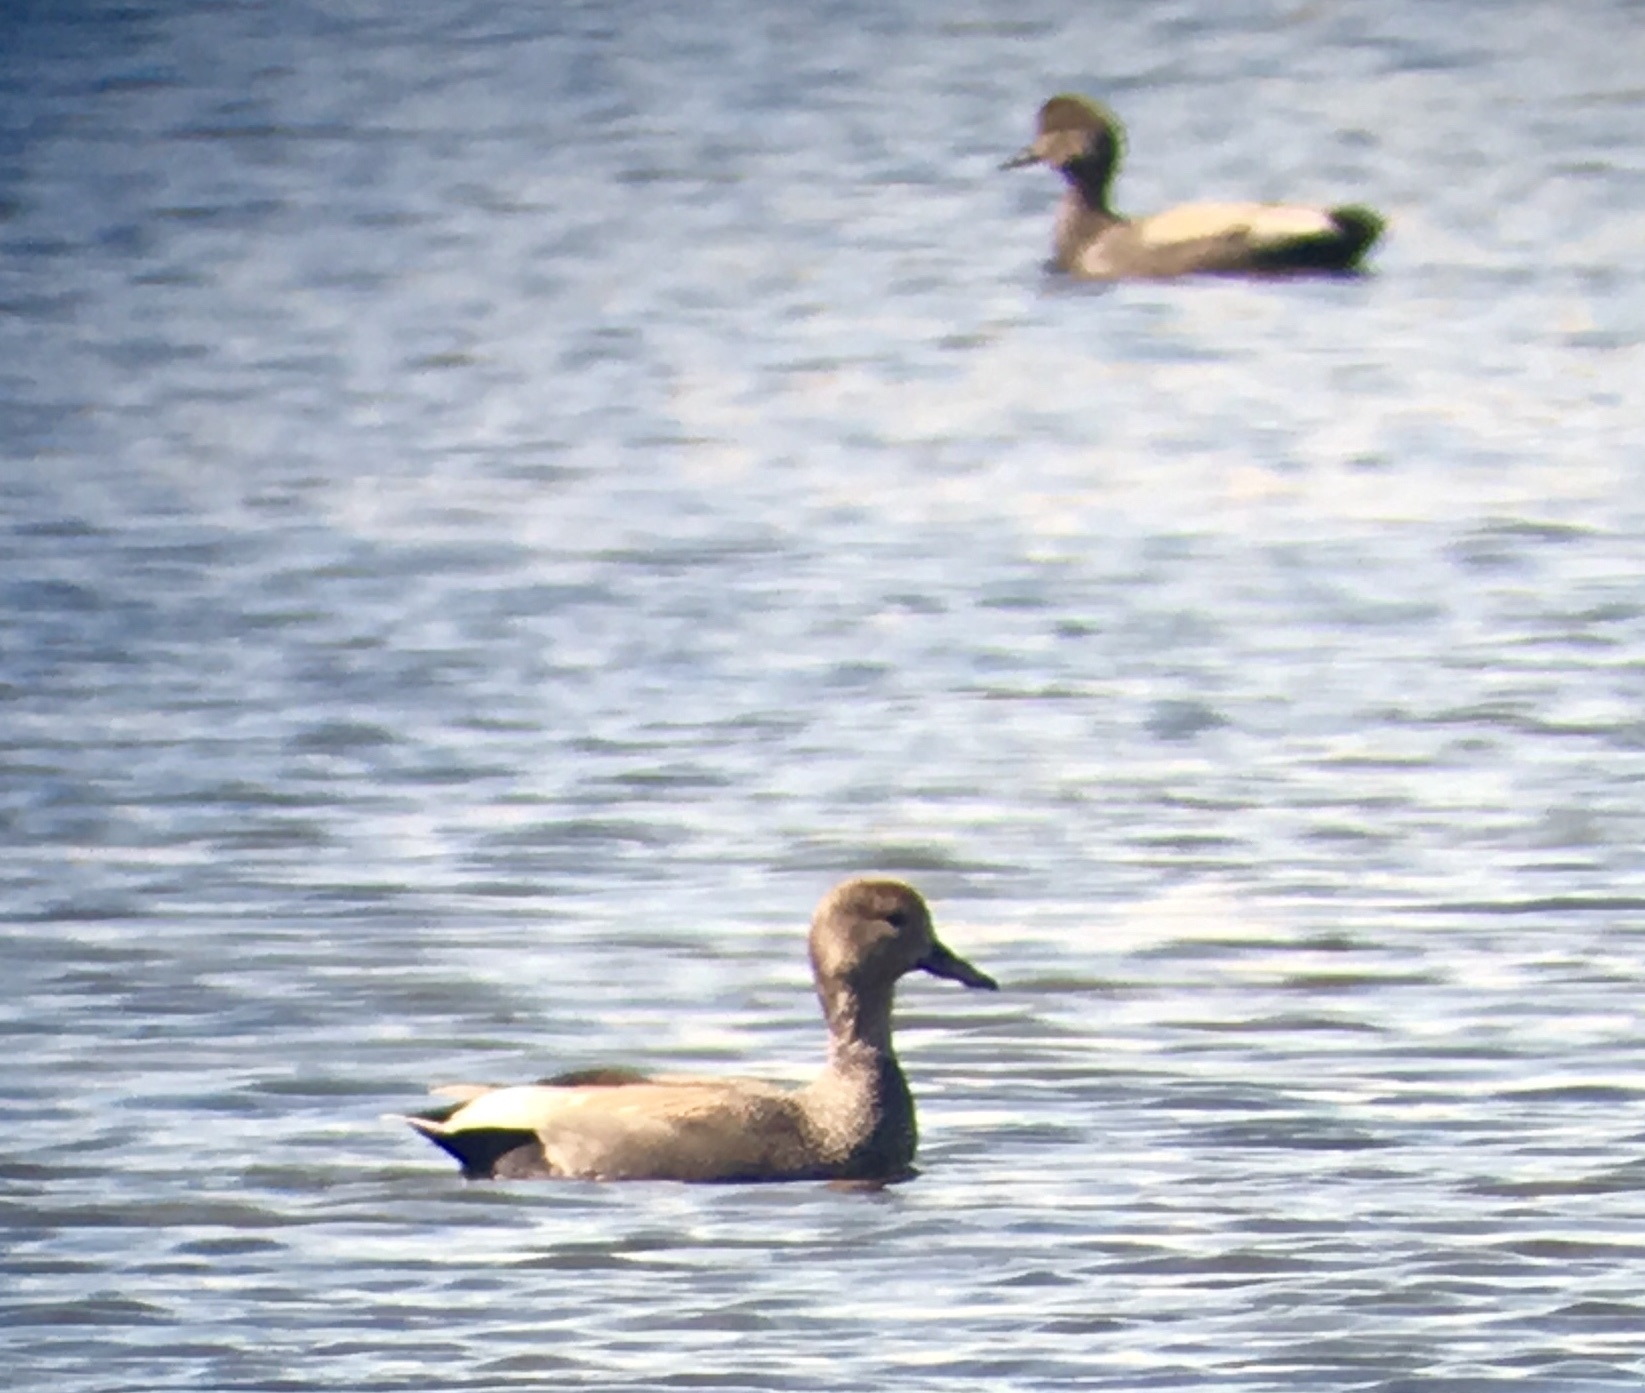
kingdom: Animalia
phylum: Chordata
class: Aves
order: Anseriformes
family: Anatidae
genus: Mareca
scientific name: Mareca strepera
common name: Gadwall
